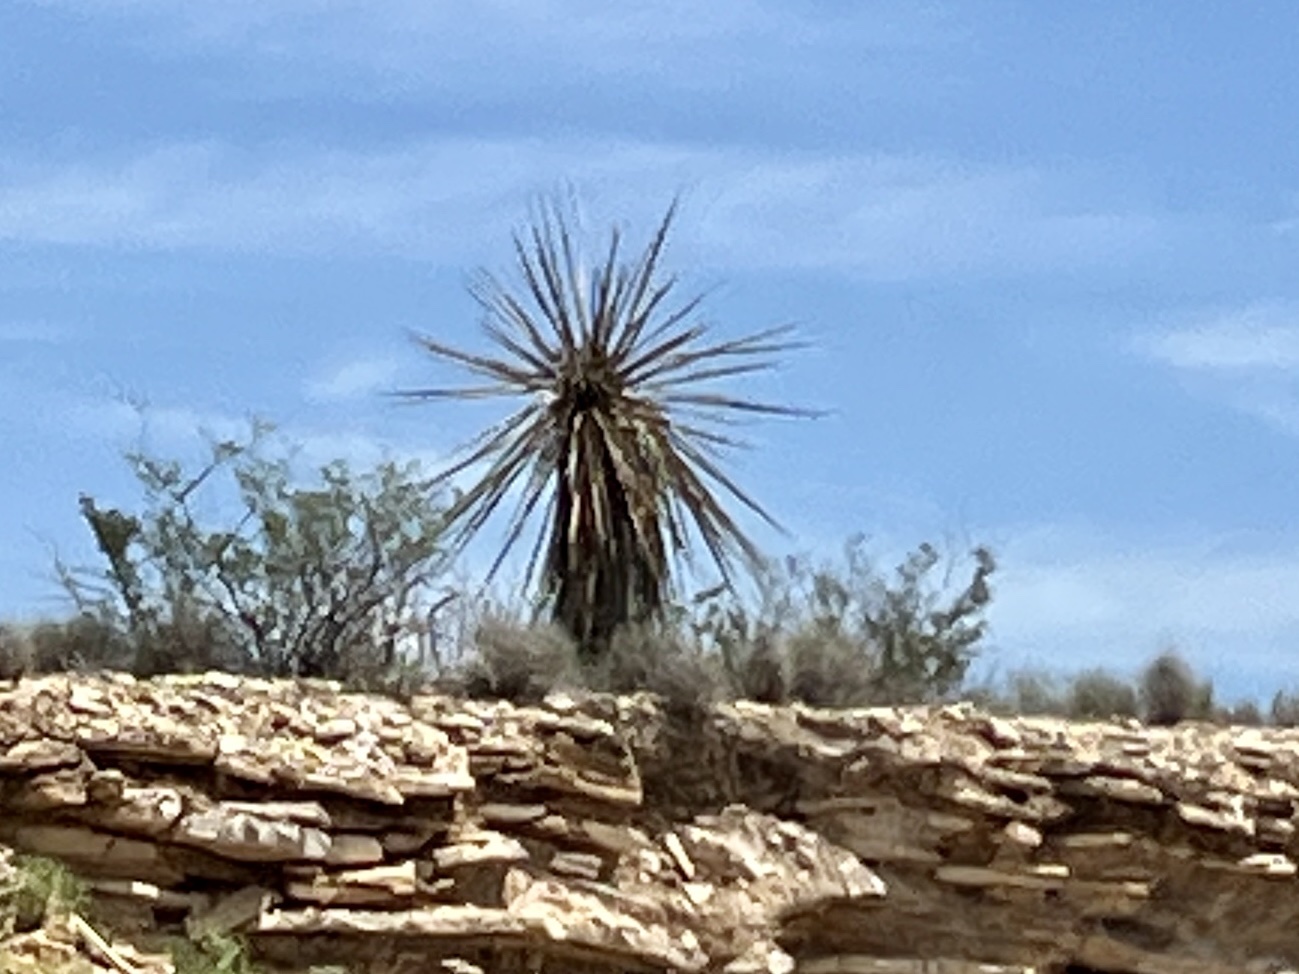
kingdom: Plantae
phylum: Tracheophyta
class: Liliopsida
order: Asparagales
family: Asparagaceae
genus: Yucca
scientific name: Yucca treculiana
